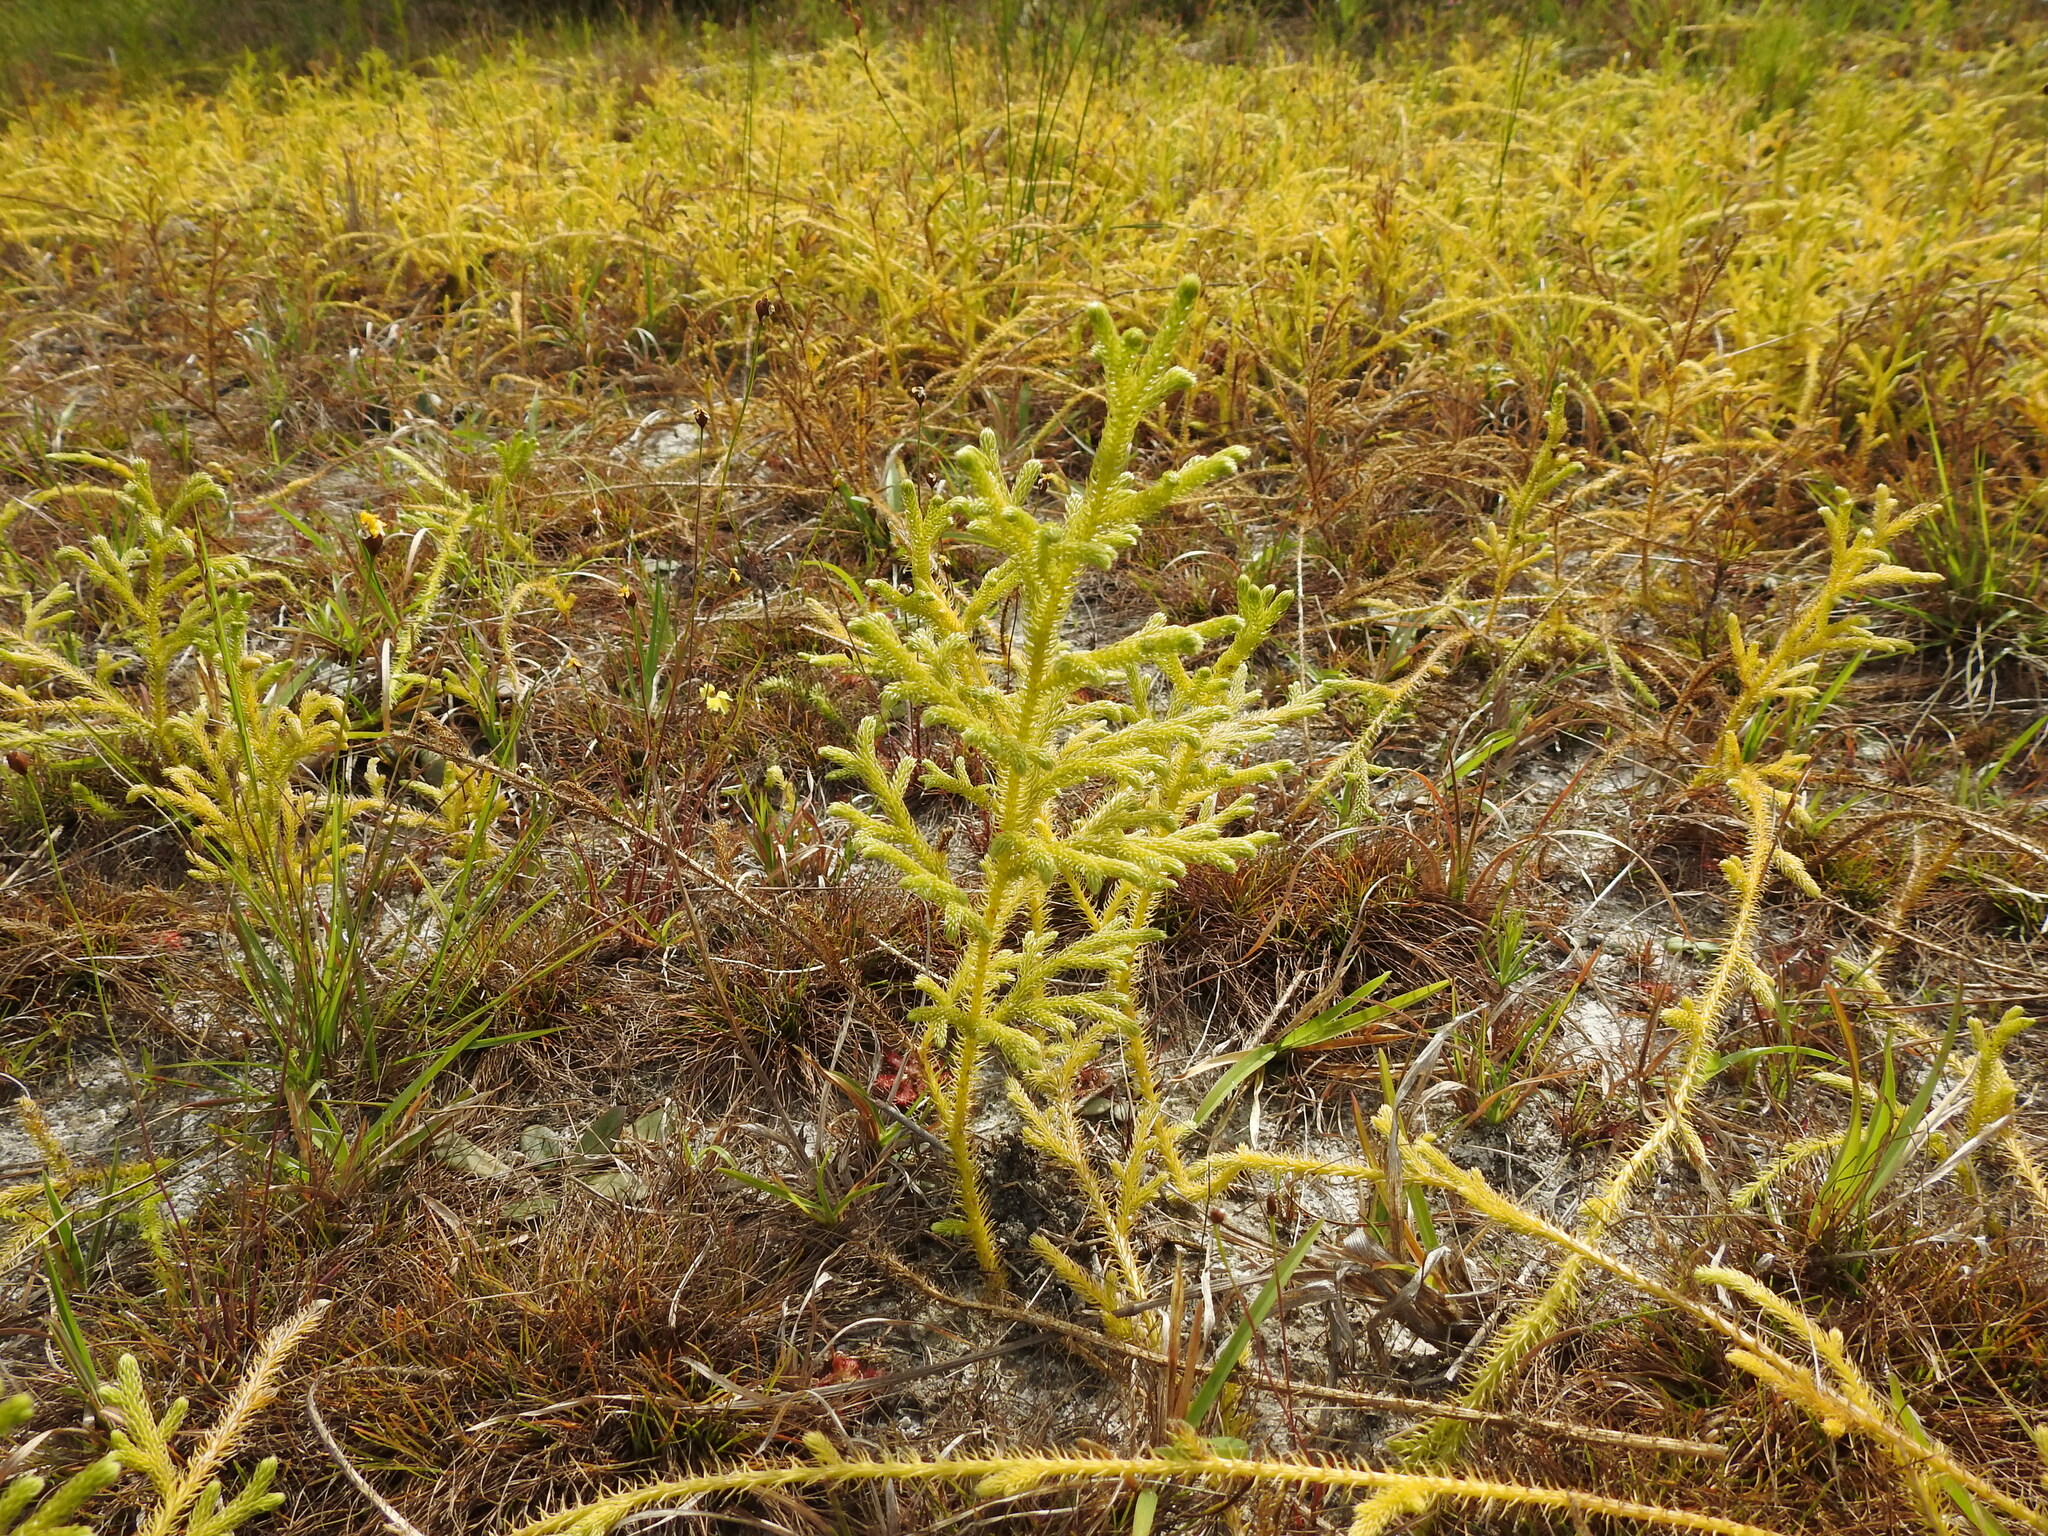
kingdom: Plantae
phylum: Tracheophyta
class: Lycopodiopsida
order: Lycopodiales
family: Lycopodiaceae
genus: Palhinhaea
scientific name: Palhinhaea cernua
